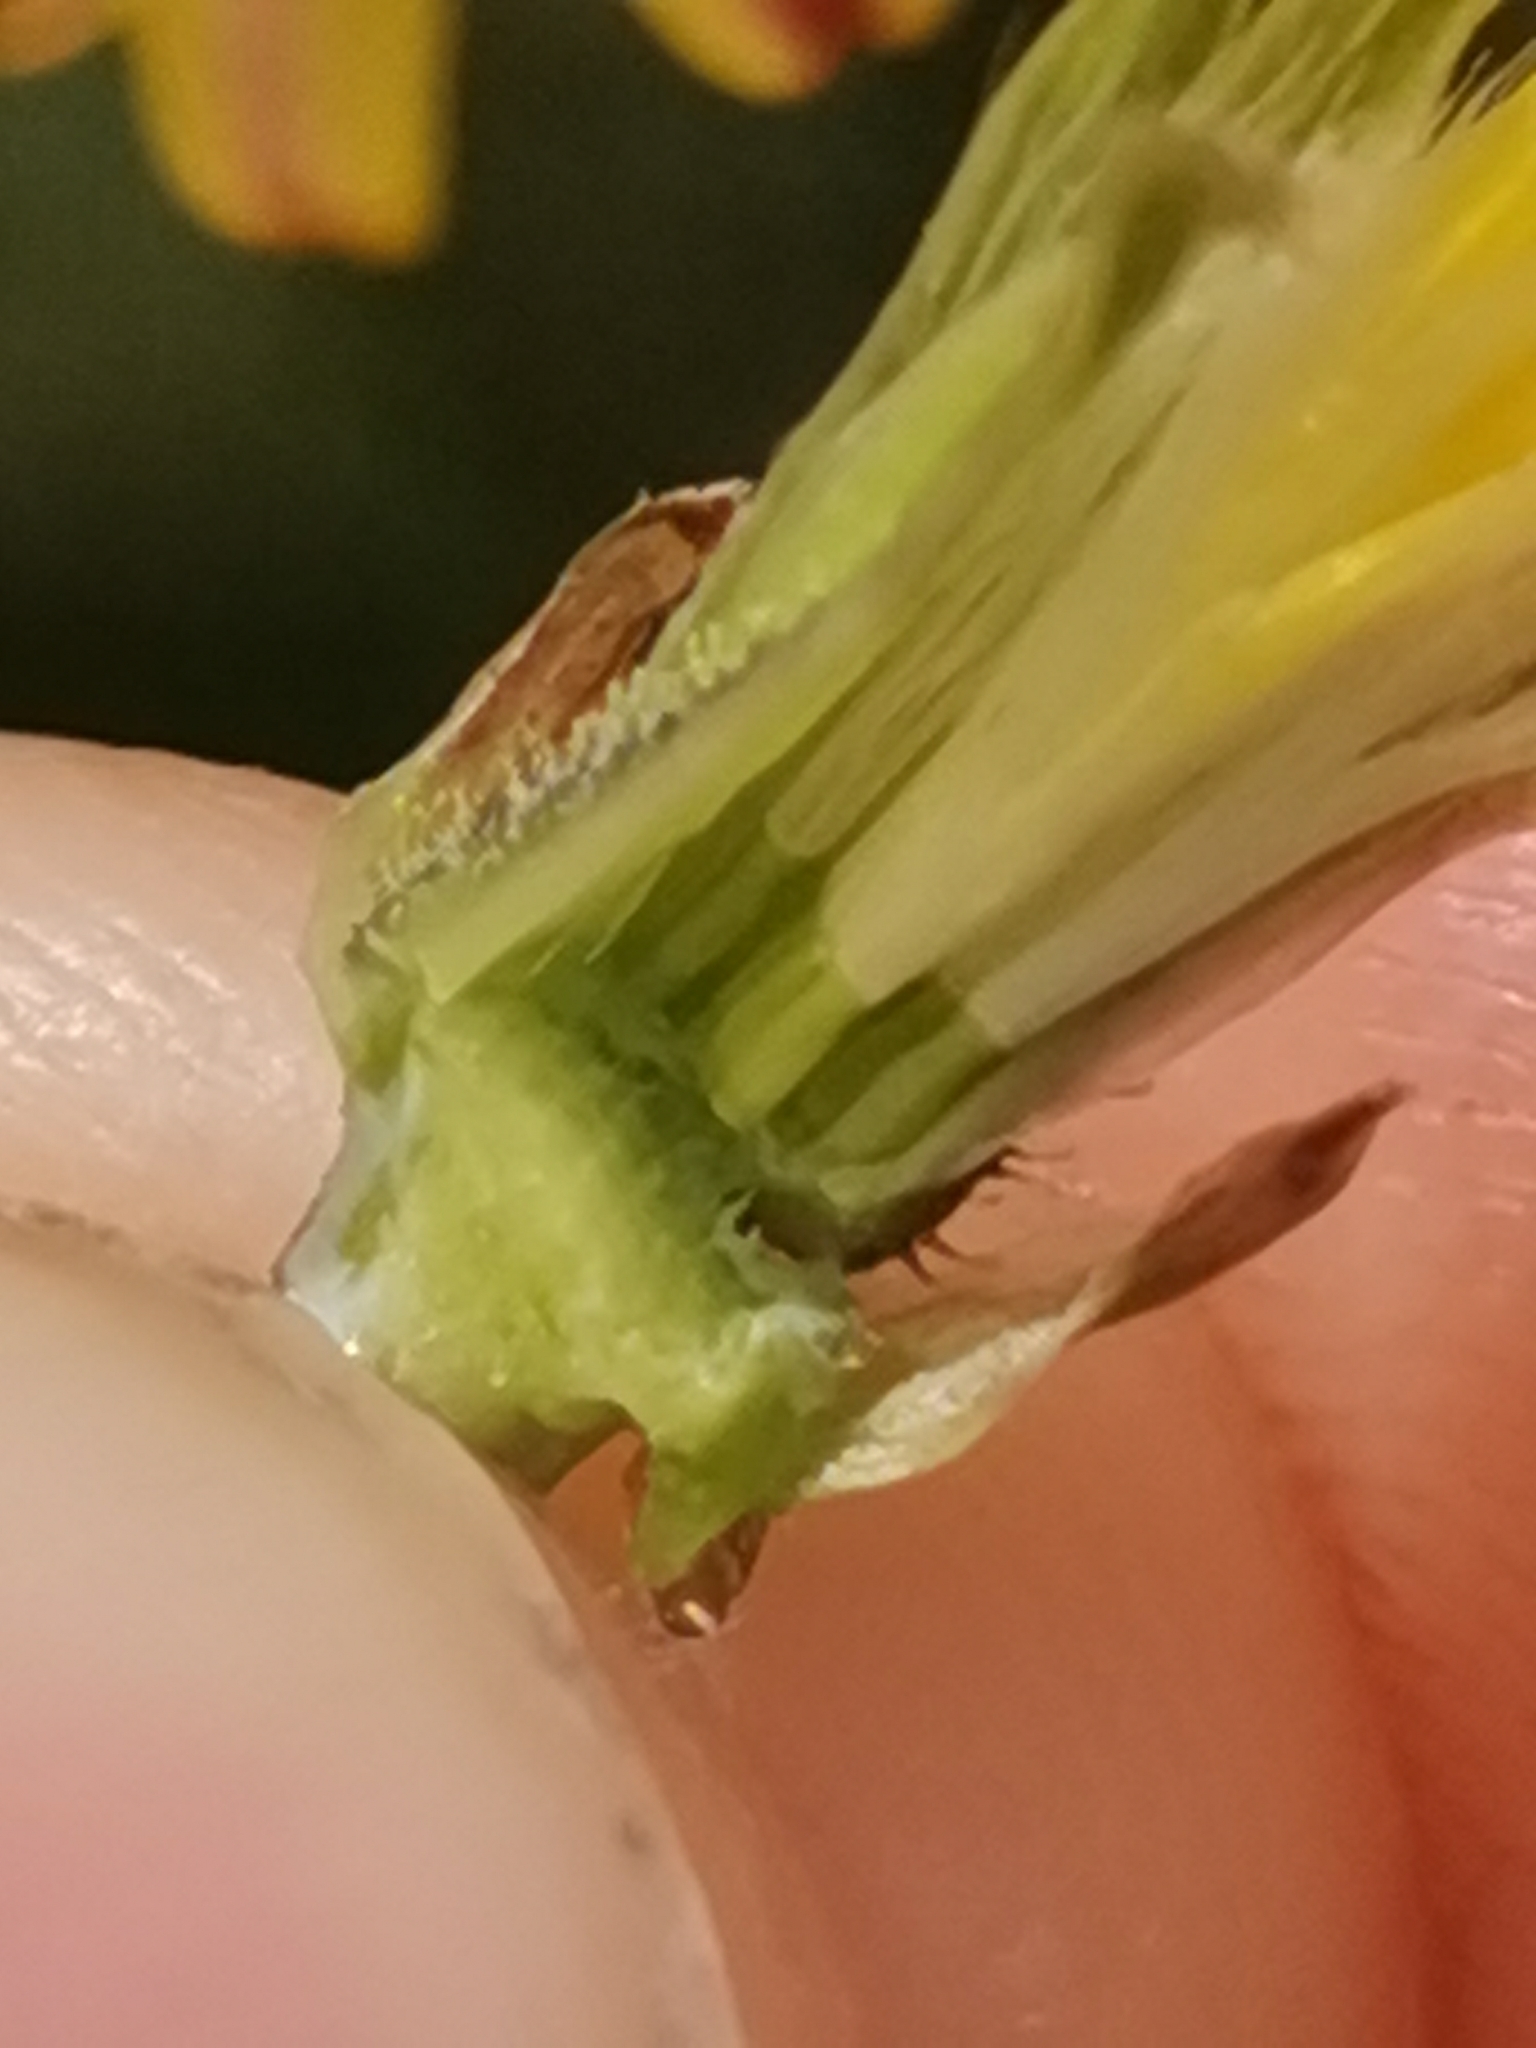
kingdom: Plantae
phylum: Tracheophyta
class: Magnoliopsida
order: Asterales
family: Asteraceae
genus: Crepis
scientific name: Crepis biennis
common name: Rough hawk's-beard
